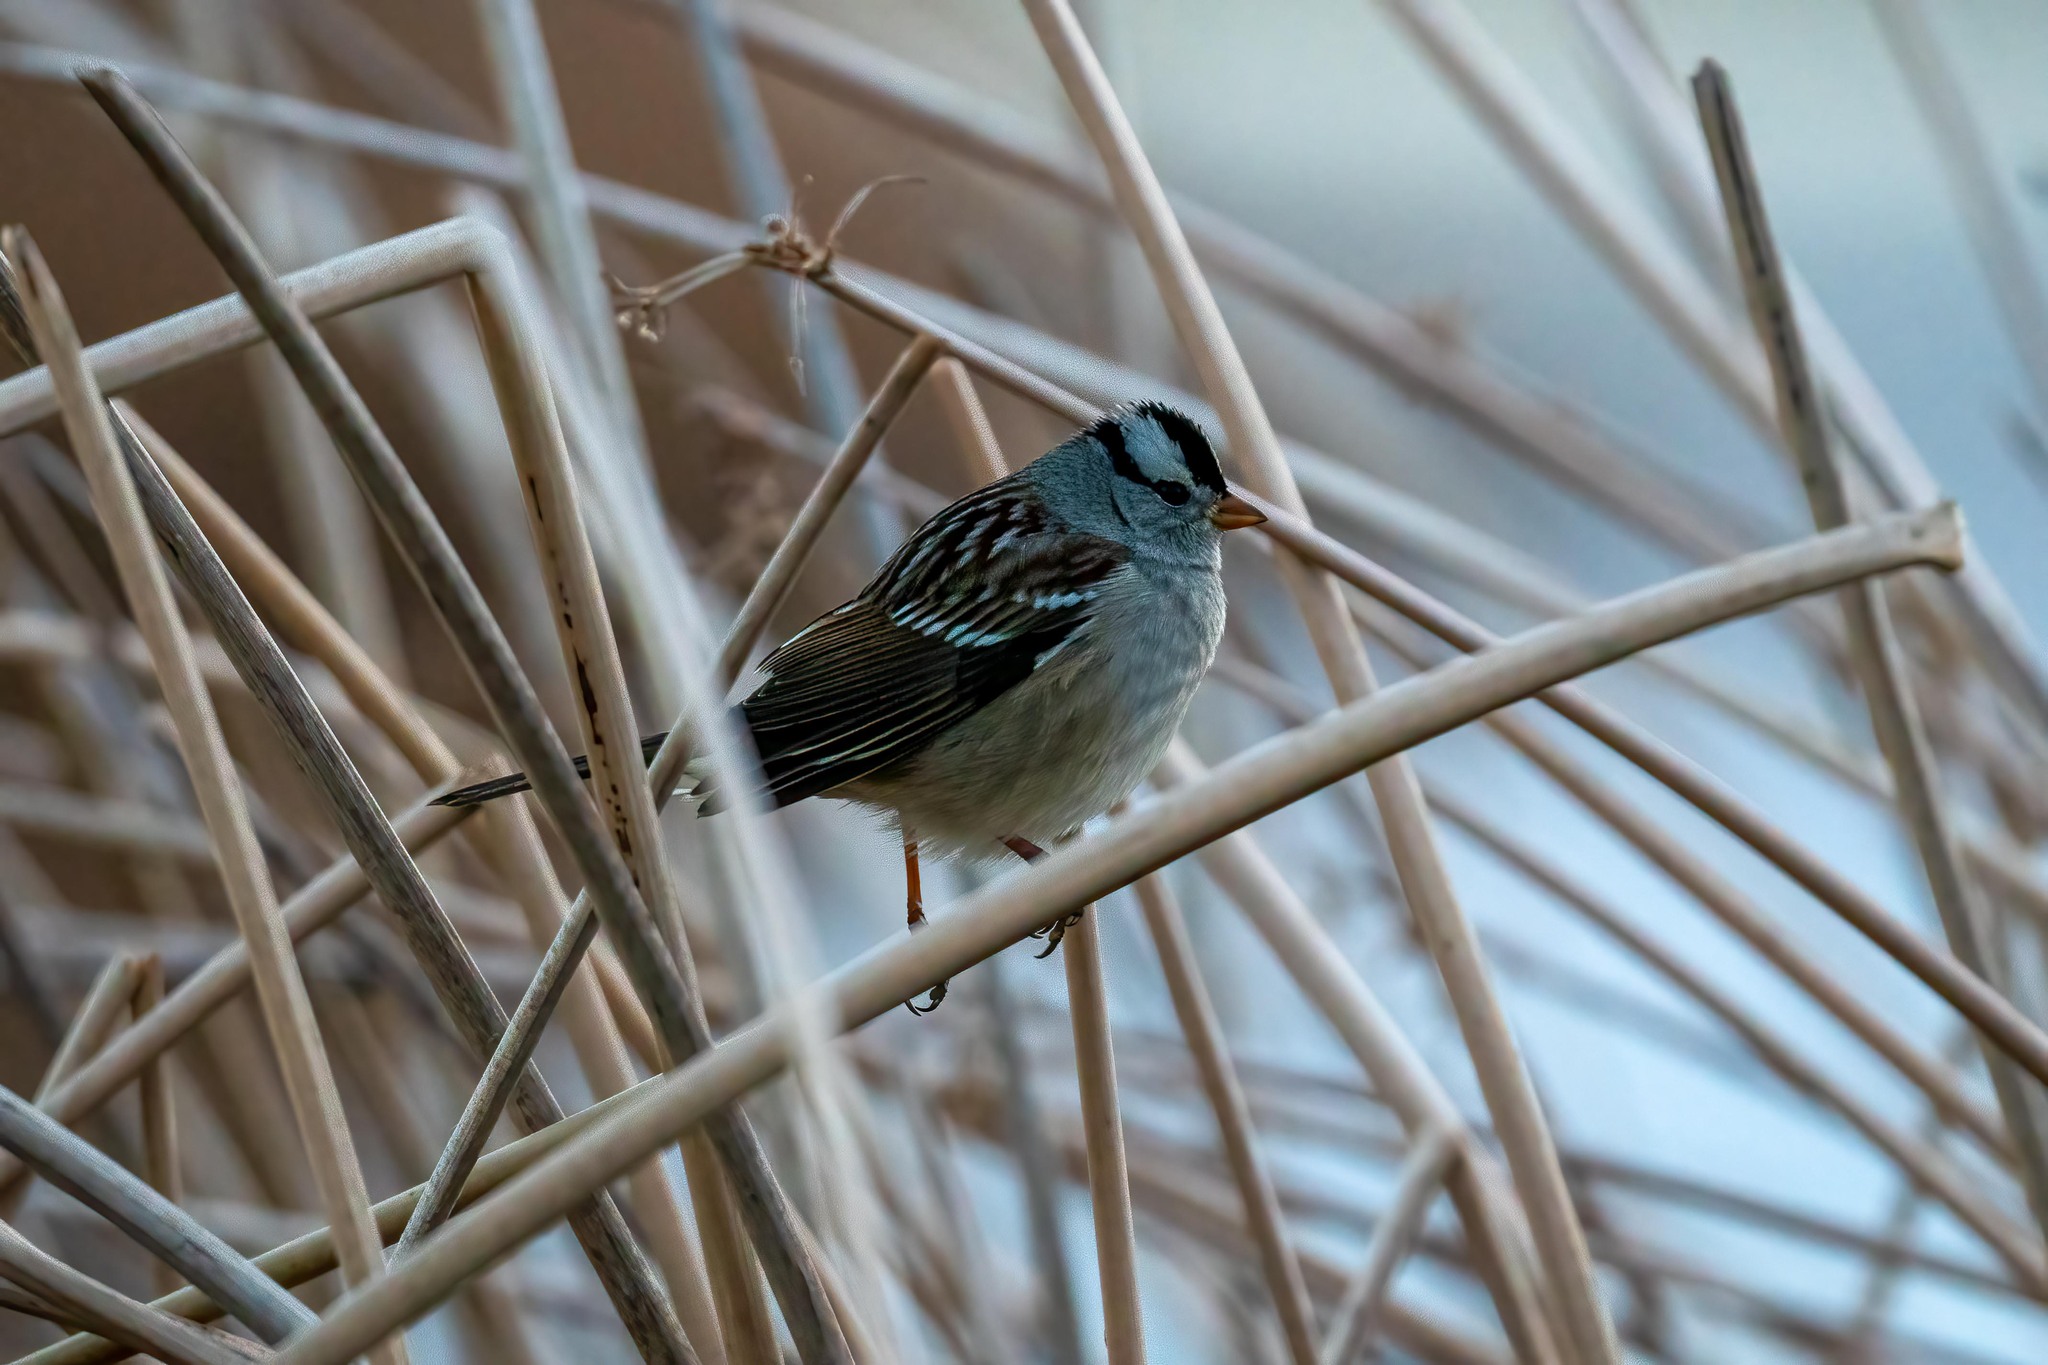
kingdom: Animalia
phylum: Chordata
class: Aves
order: Passeriformes
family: Passerellidae
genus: Zonotrichia
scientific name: Zonotrichia leucophrys
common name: White-crowned sparrow
